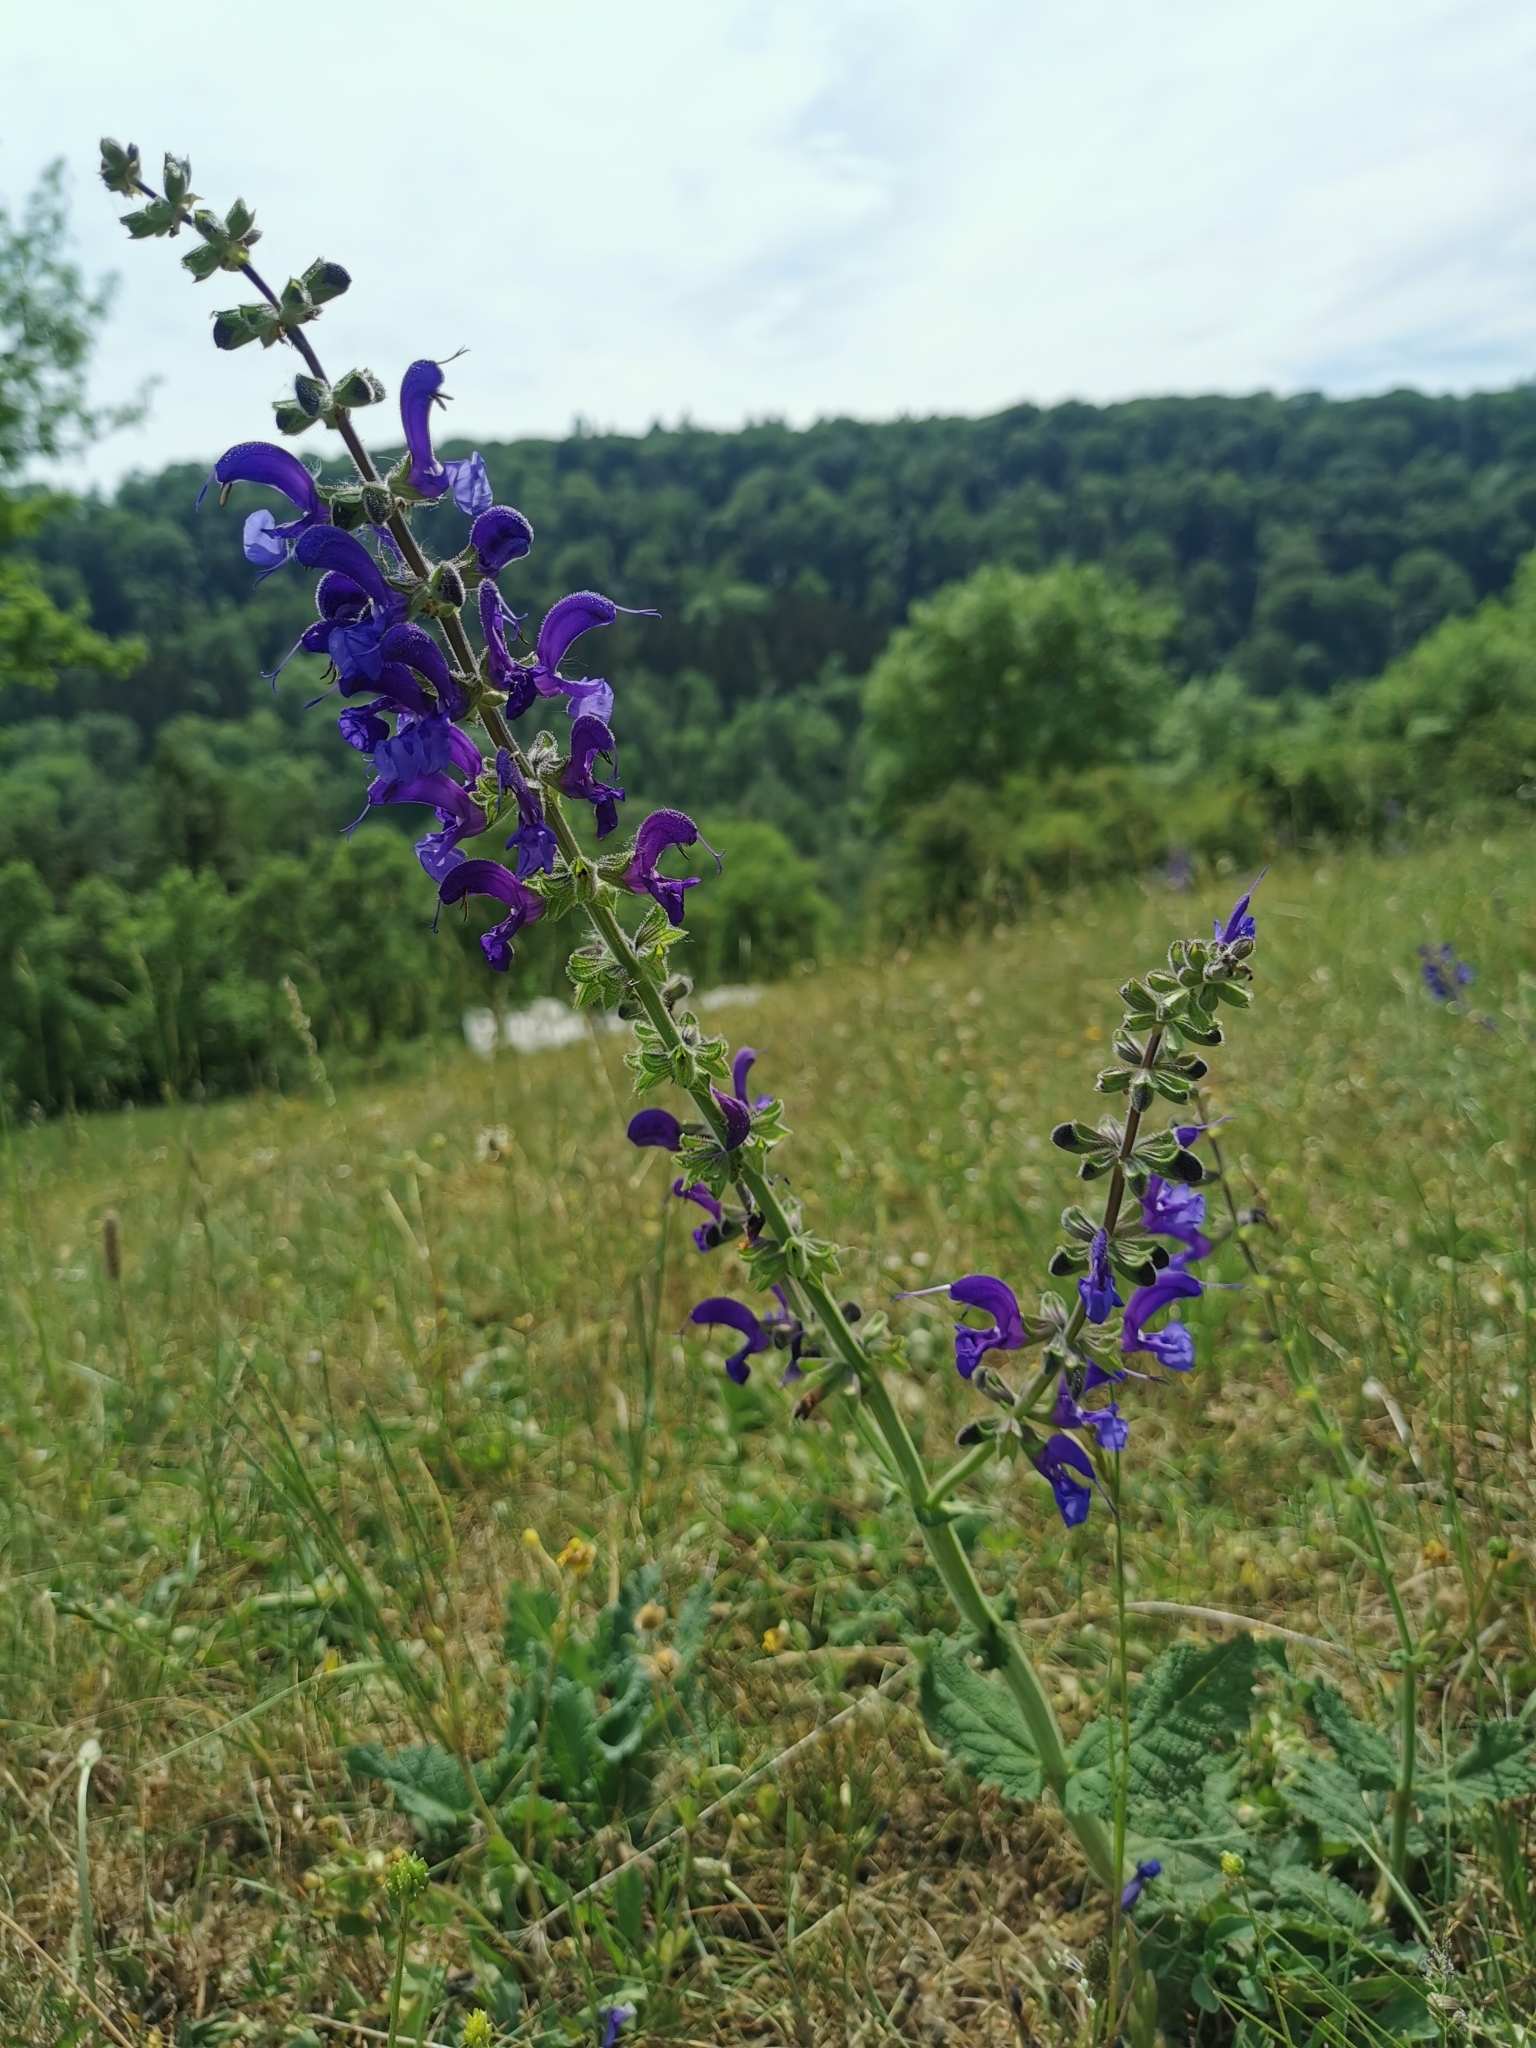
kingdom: Plantae
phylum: Tracheophyta
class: Magnoliopsida
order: Lamiales
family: Lamiaceae
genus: Salvia
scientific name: Salvia pratensis
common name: Meadow sage
